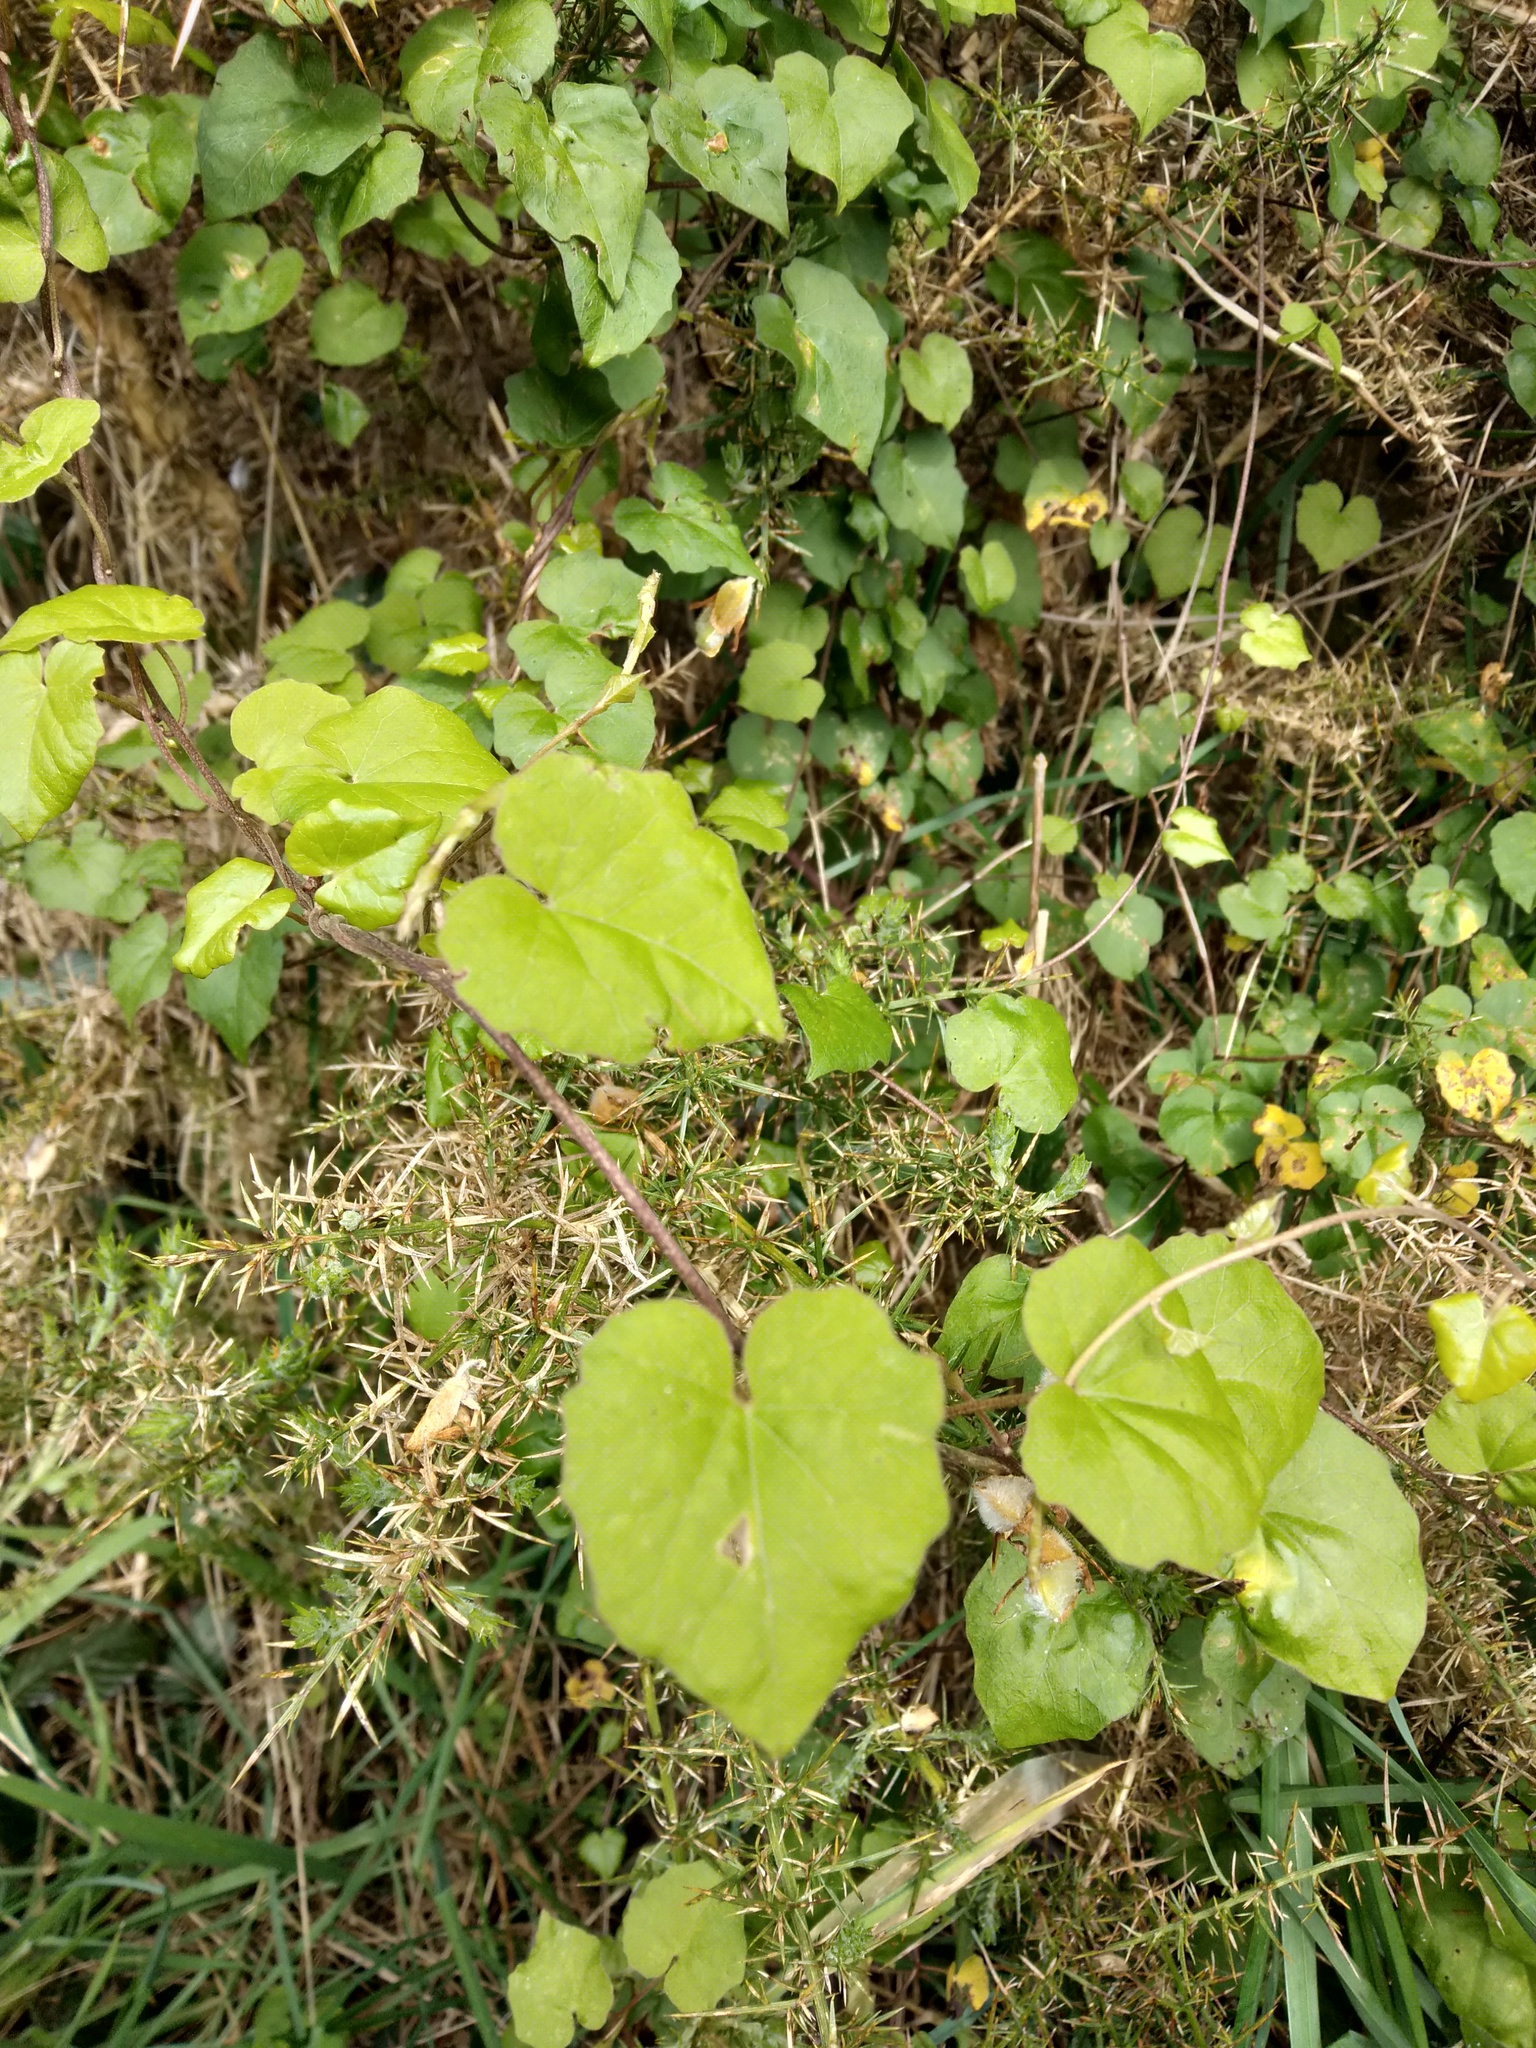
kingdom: Plantae
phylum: Tracheophyta
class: Magnoliopsida
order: Solanales
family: Convolvulaceae
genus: Calystegia
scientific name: Calystegia tuguriorum
